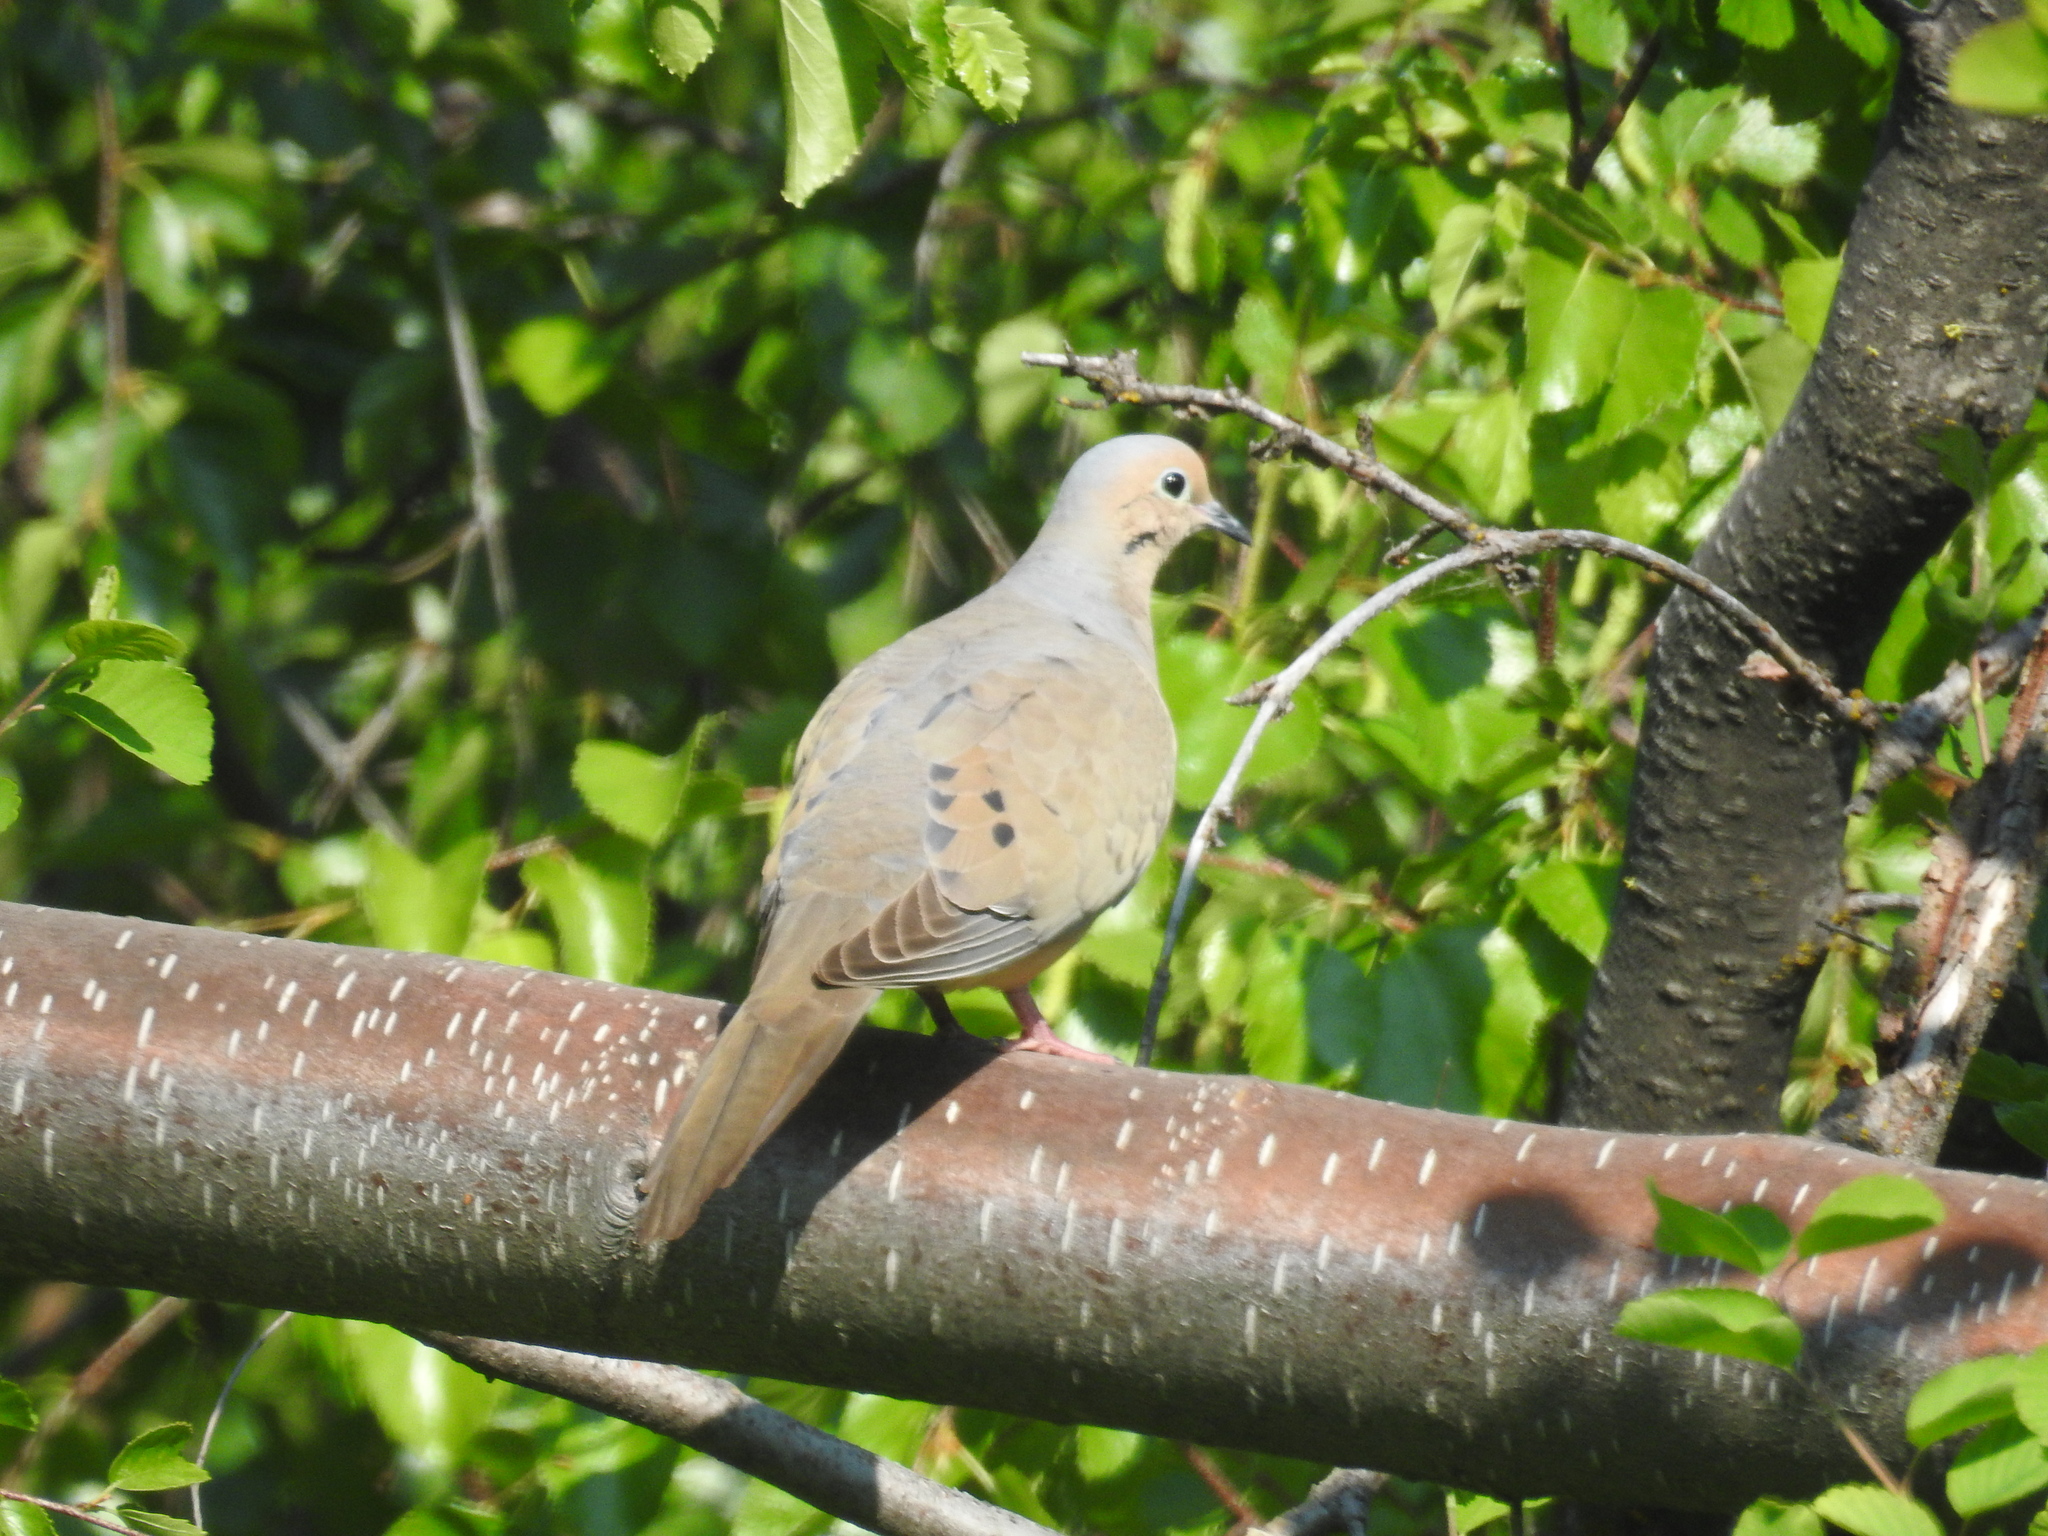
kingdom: Animalia
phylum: Chordata
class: Aves
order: Columbiformes
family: Columbidae
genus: Zenaida
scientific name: Zenaida macroura
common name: Mourning dove
